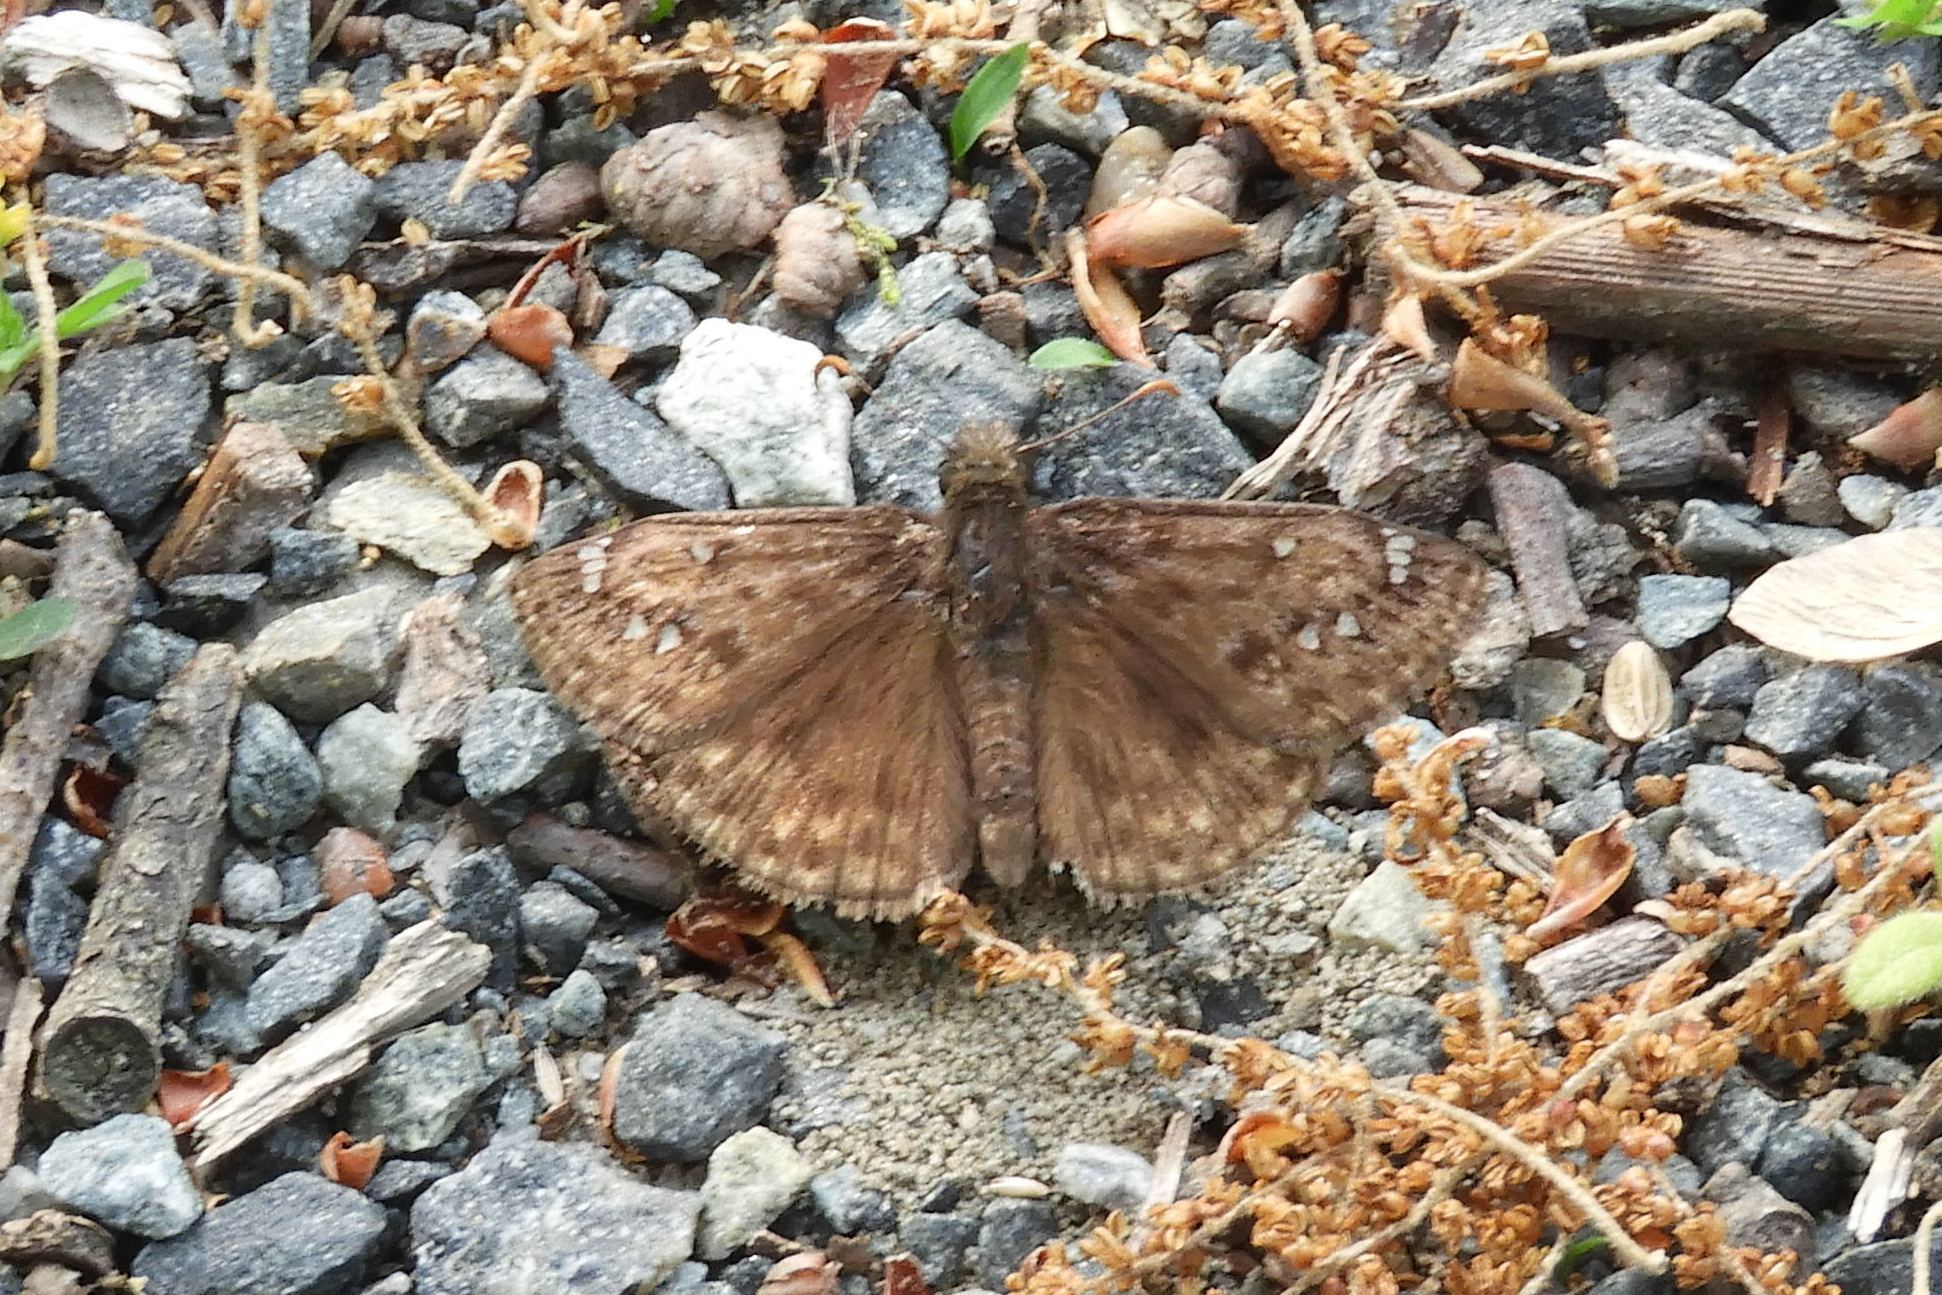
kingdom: Animalia
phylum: Arthropoda
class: Insecta
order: Lepidoptera
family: Hesperiidae
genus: Erynnis
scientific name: Erynnis
